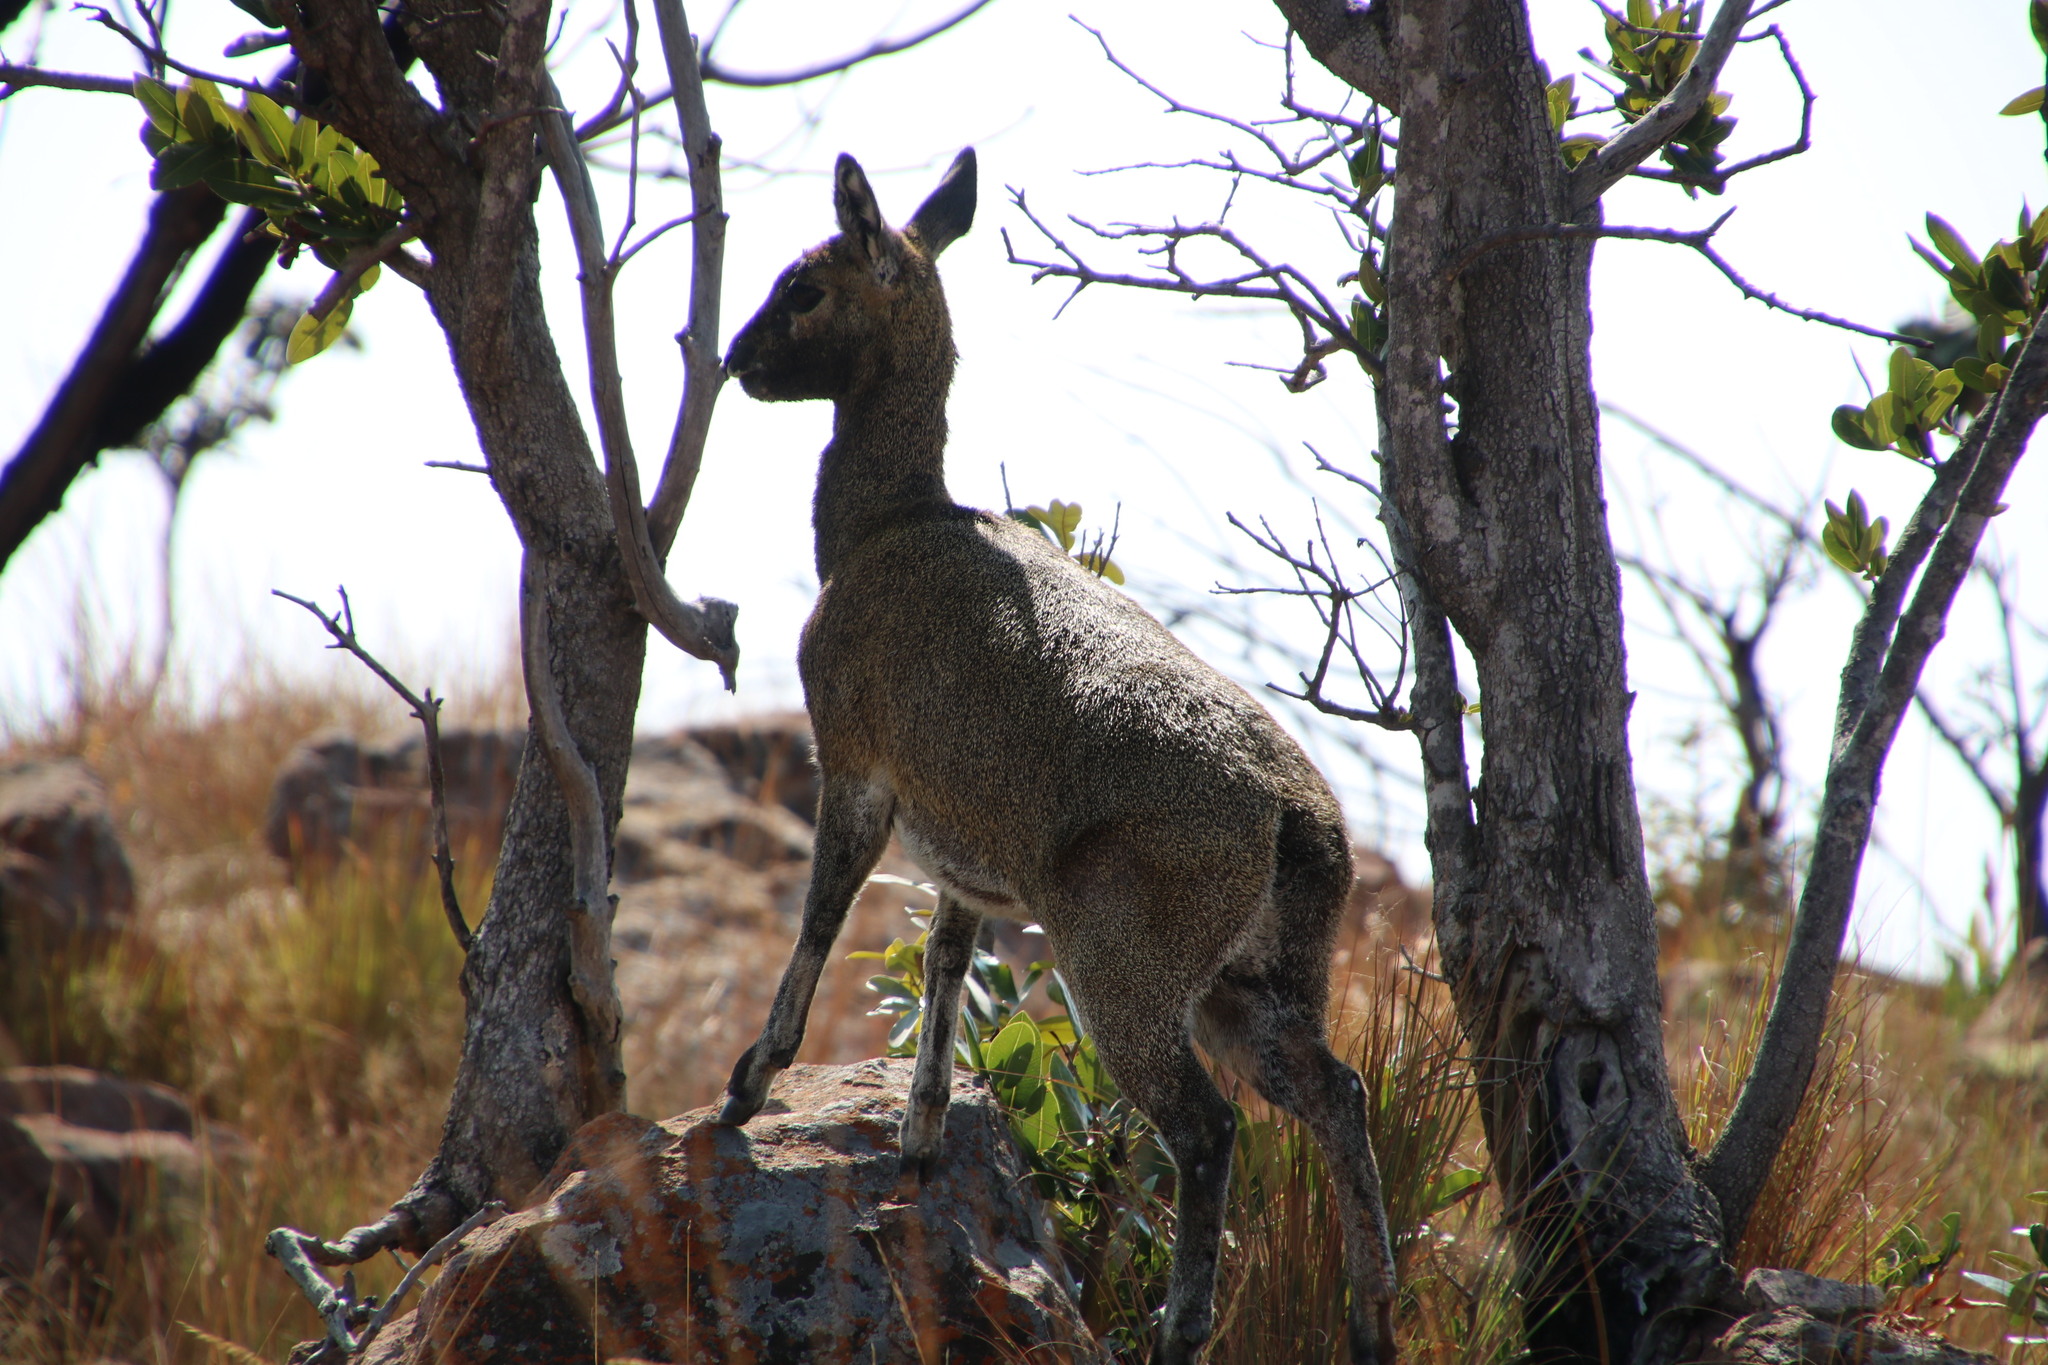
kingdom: Animalia
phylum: Chordata
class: Mammalia
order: Artiodactyla
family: Bovidae
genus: Oreotragus
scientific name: Oreotragus oreotragus
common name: Klipspringer
